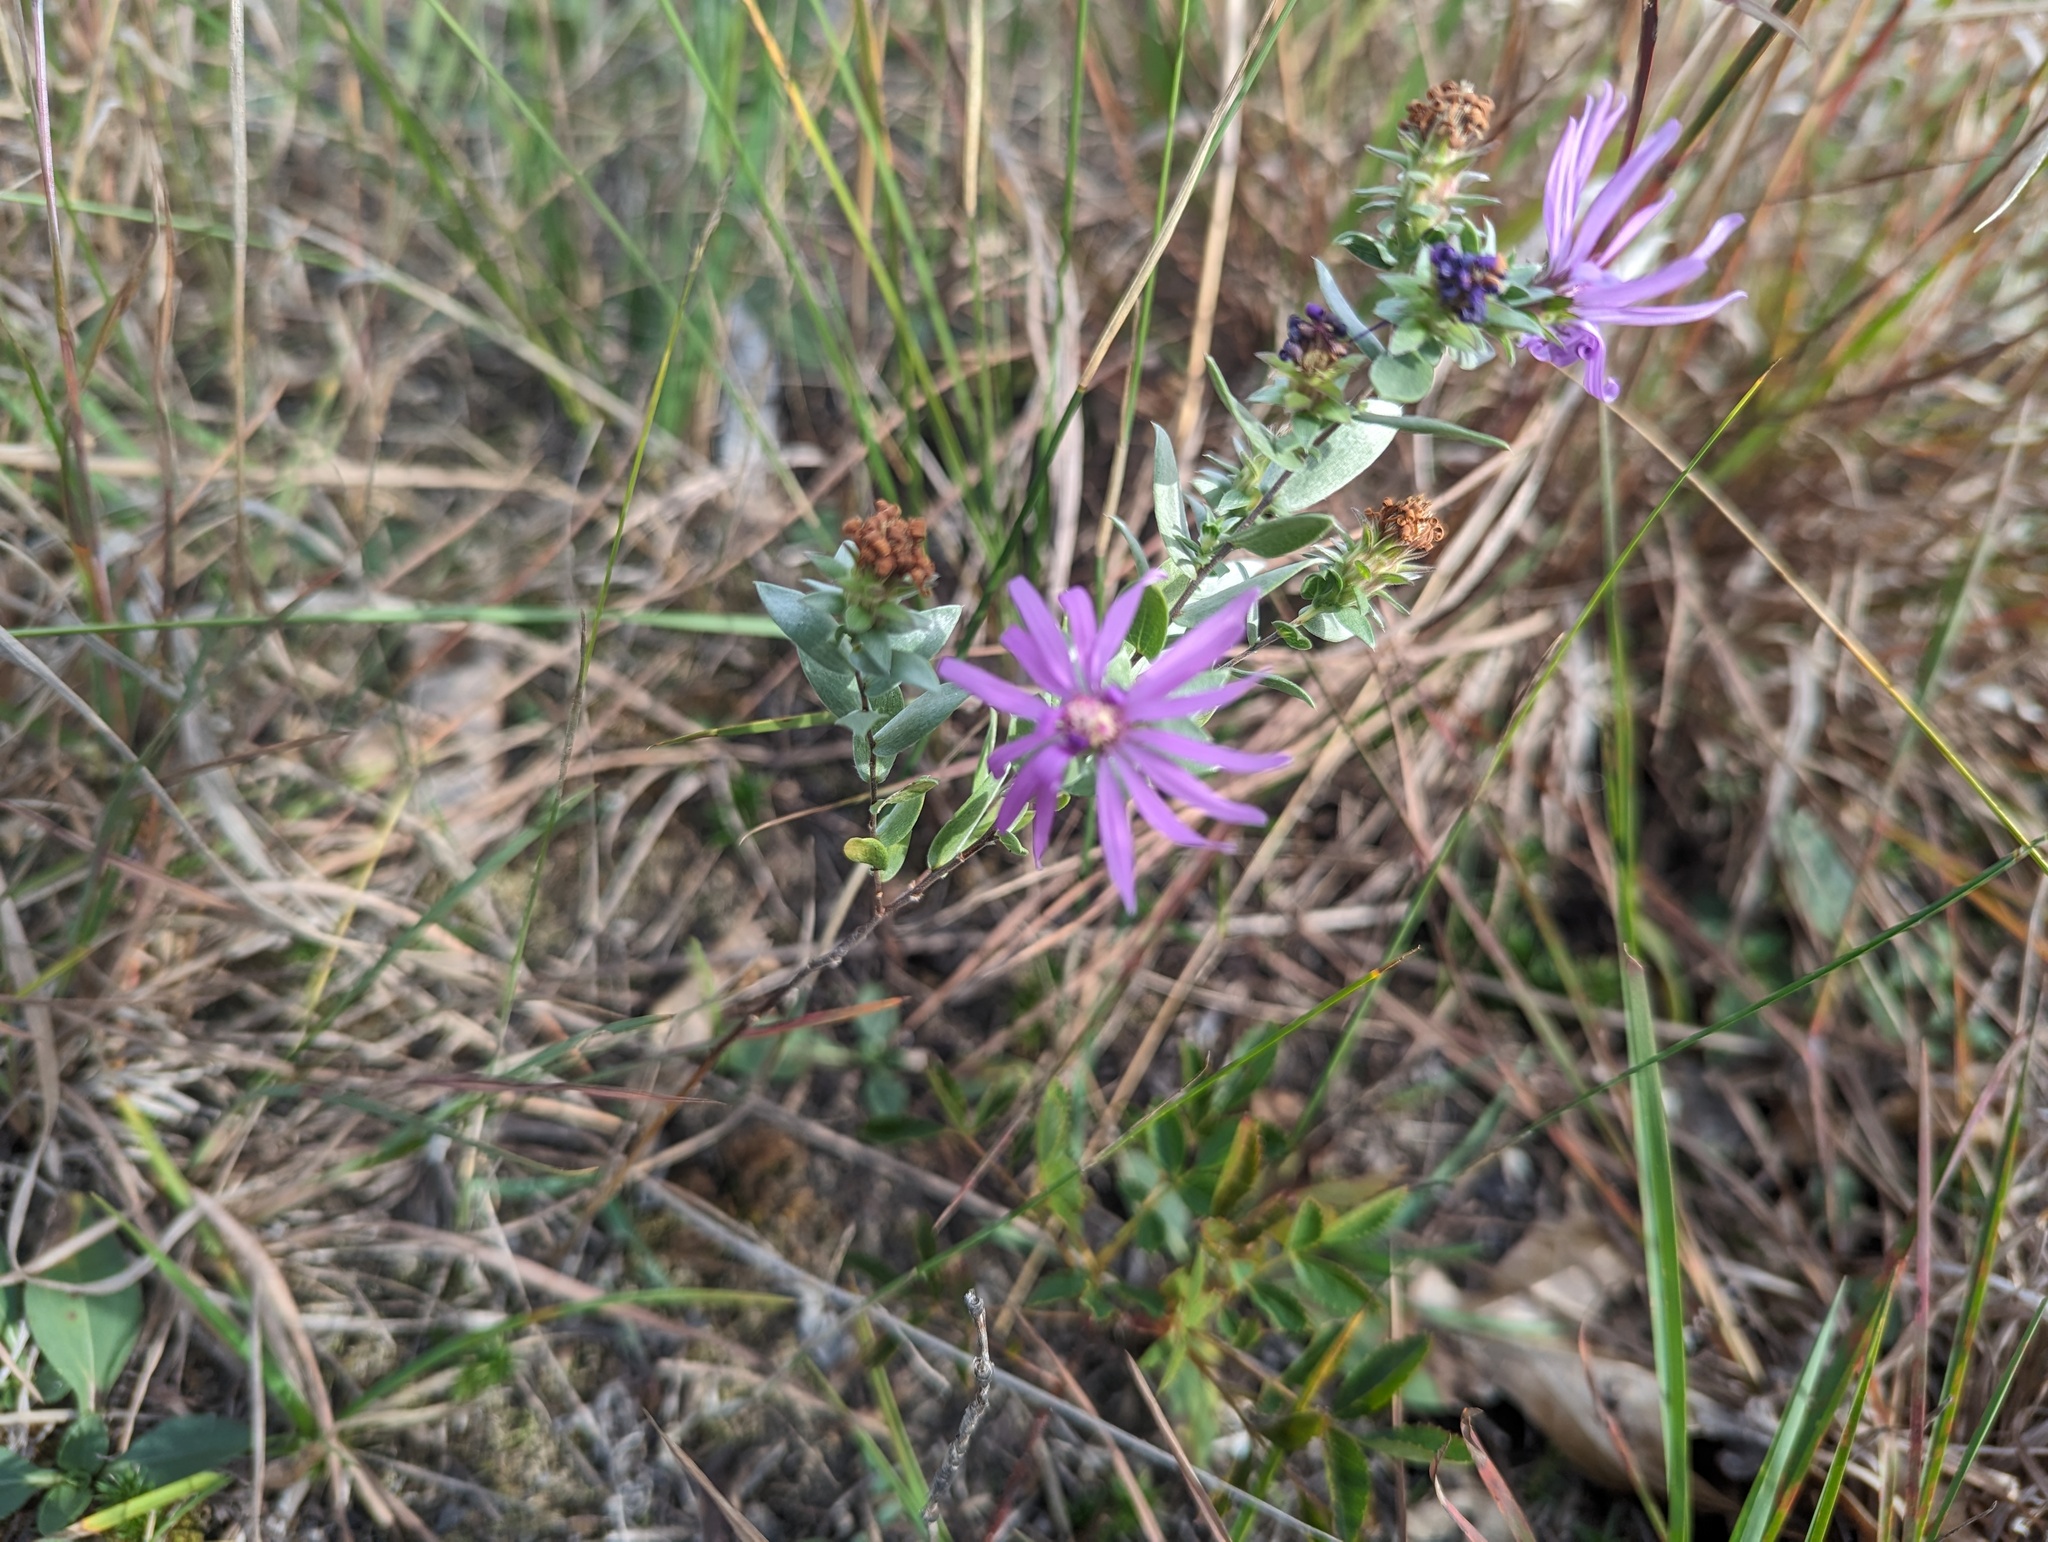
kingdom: Plantae
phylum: Tracheophyta
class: Magnoliopsida
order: Asterales
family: Asteraceae
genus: Symphyotrichum
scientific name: Symphyotrichum sericeum
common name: Silky aster
